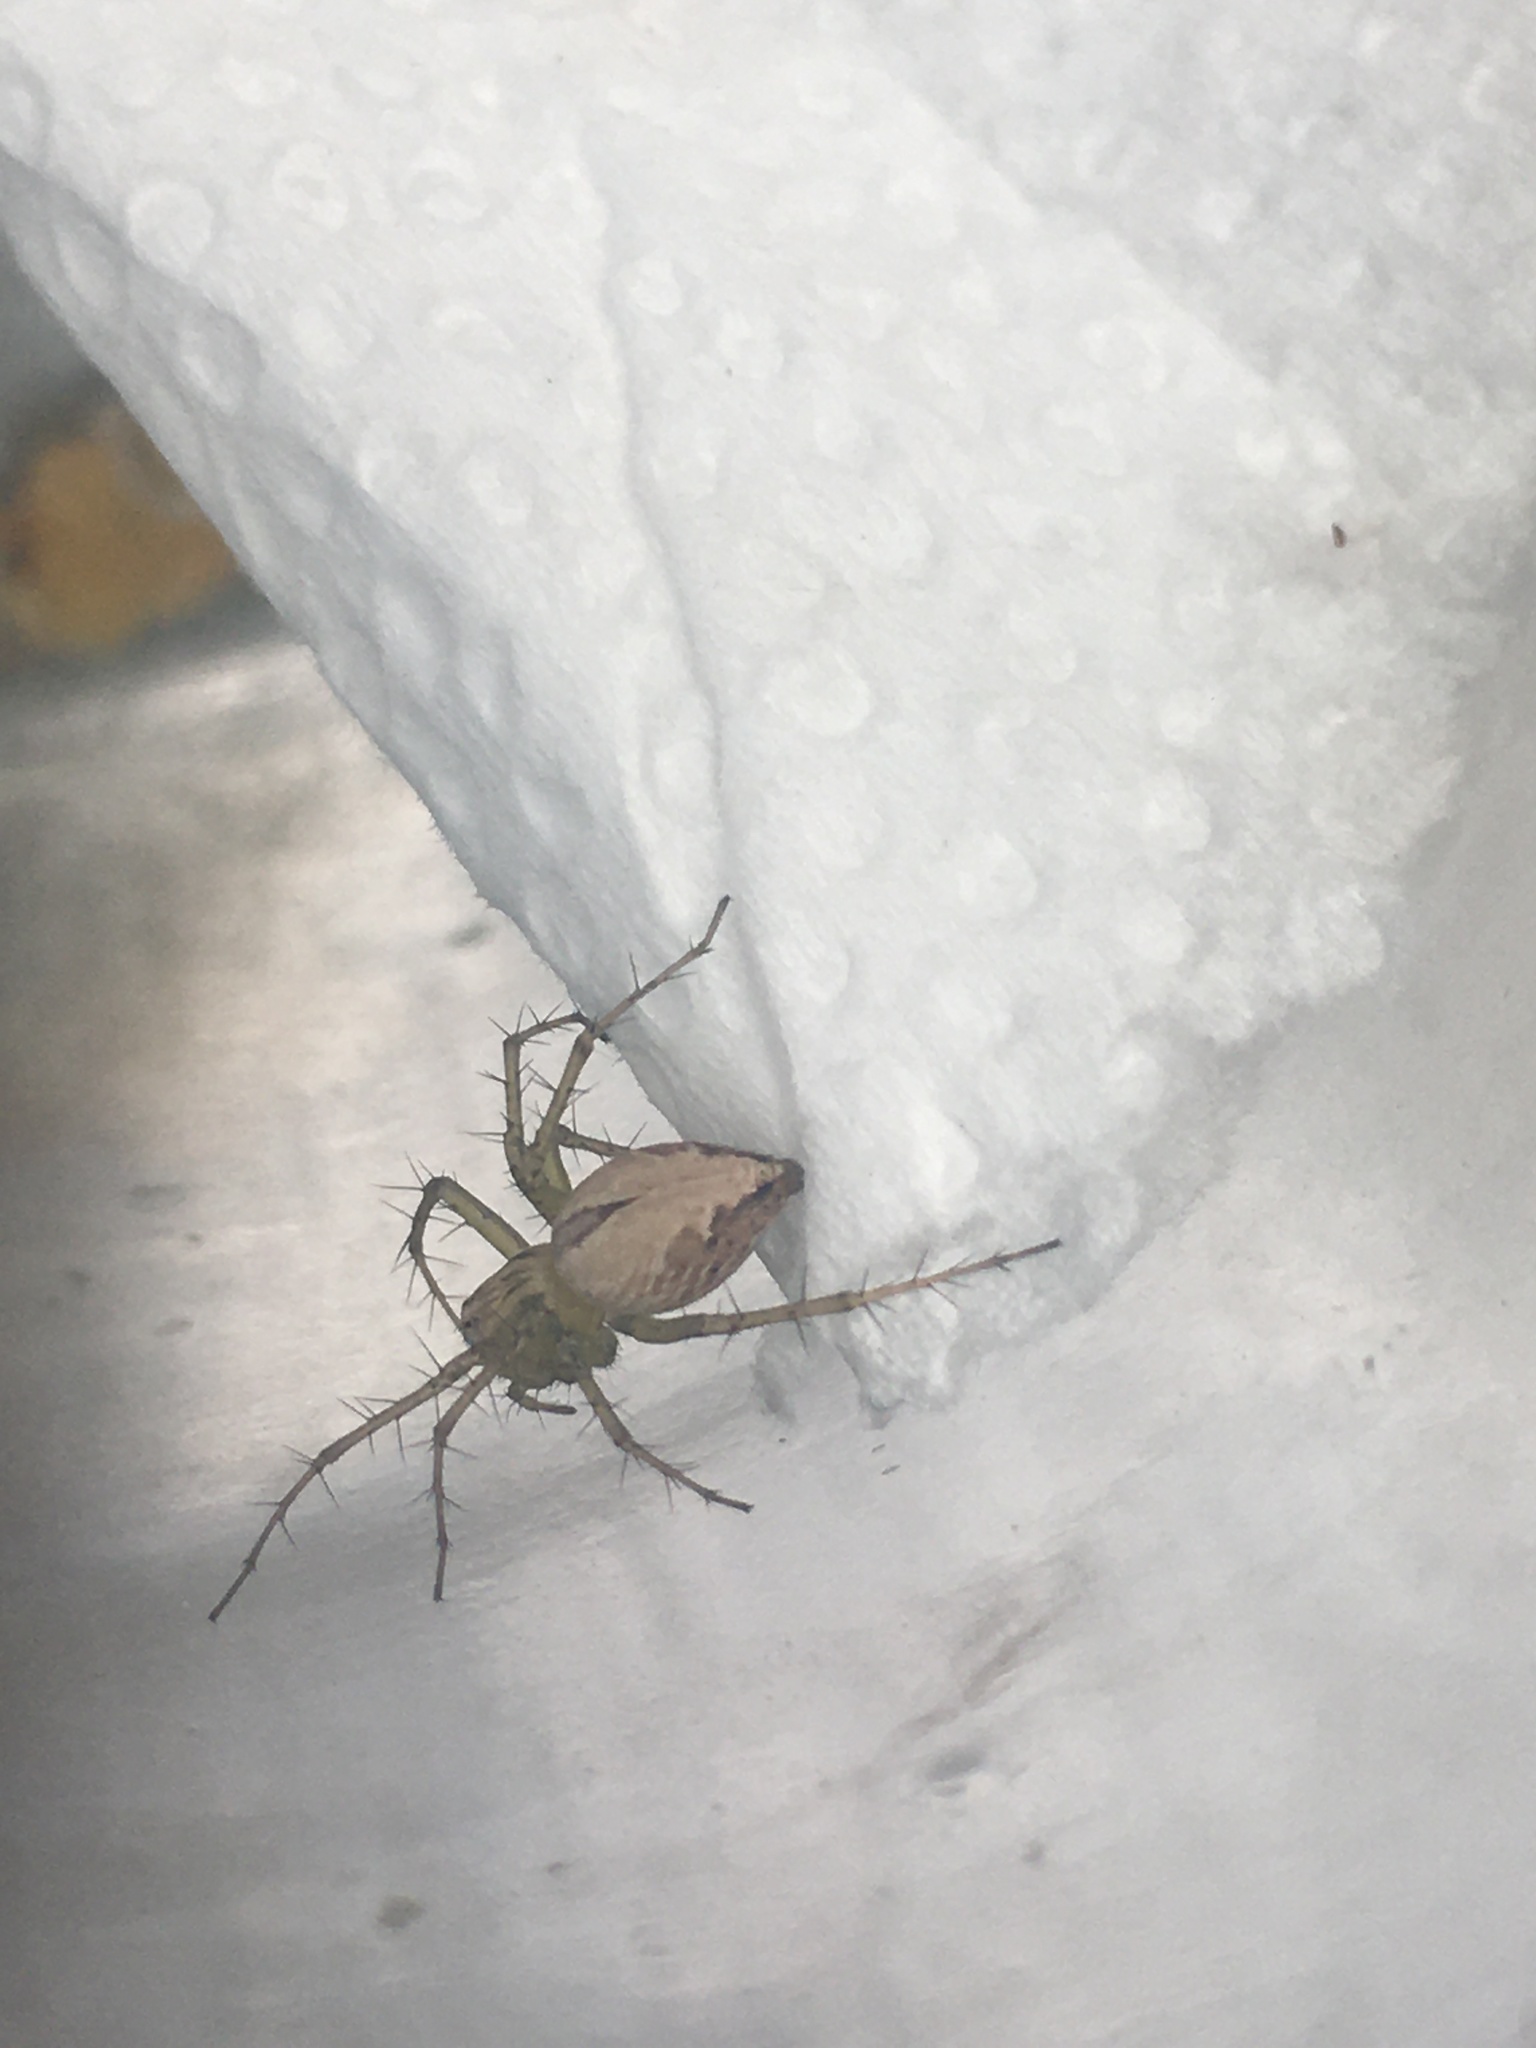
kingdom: Animalia
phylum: Arthropoda
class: Arachnida
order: Araneae
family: Oxyopidae
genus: Oxyopes
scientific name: Oxyopes salticus
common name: Lynx spiders
